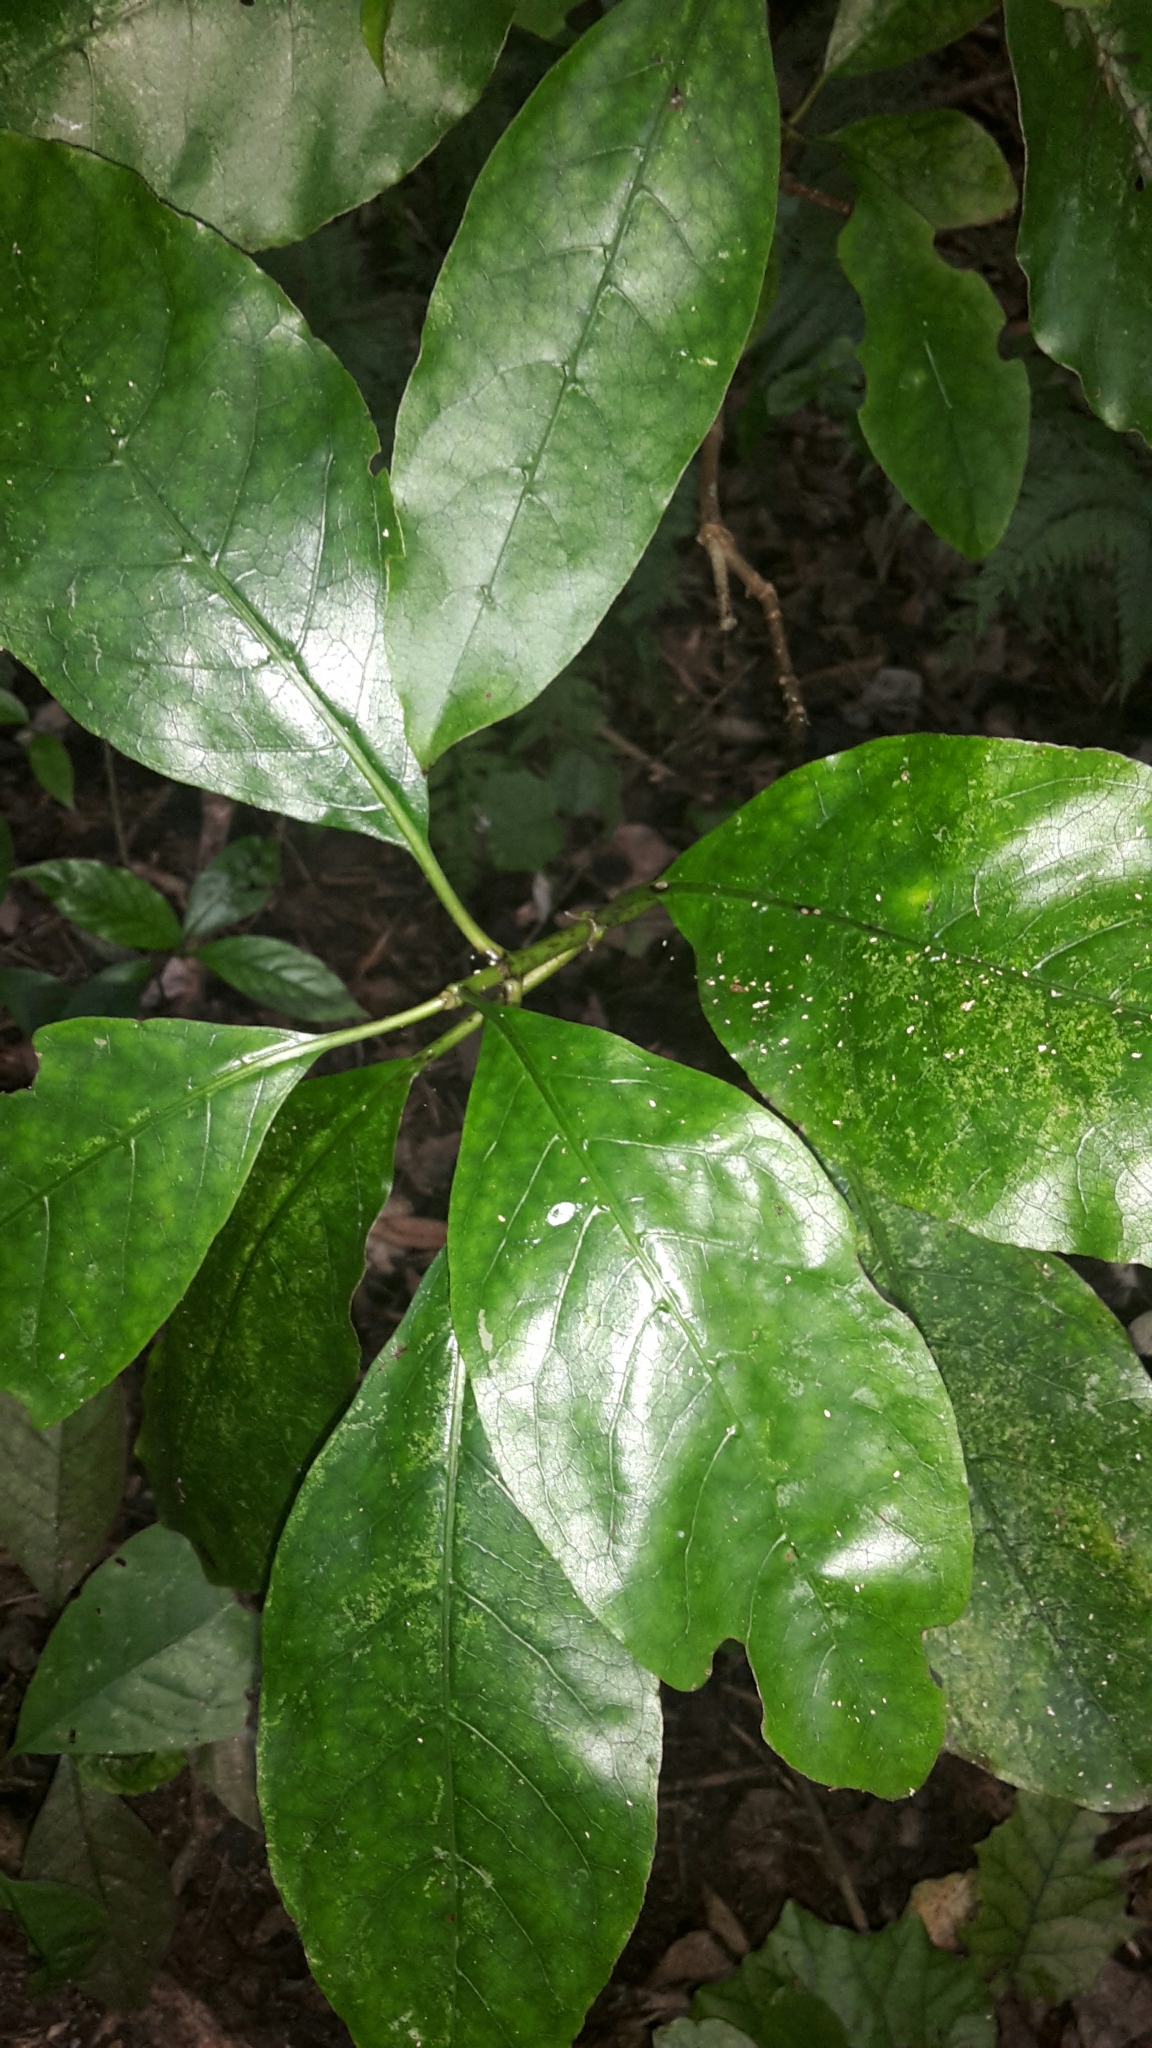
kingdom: Plantae
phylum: Tracheophyta
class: Magnoliopsida
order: Gentianales
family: Rubiaceae
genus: Coprosma
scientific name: Coprosma autumnalis
